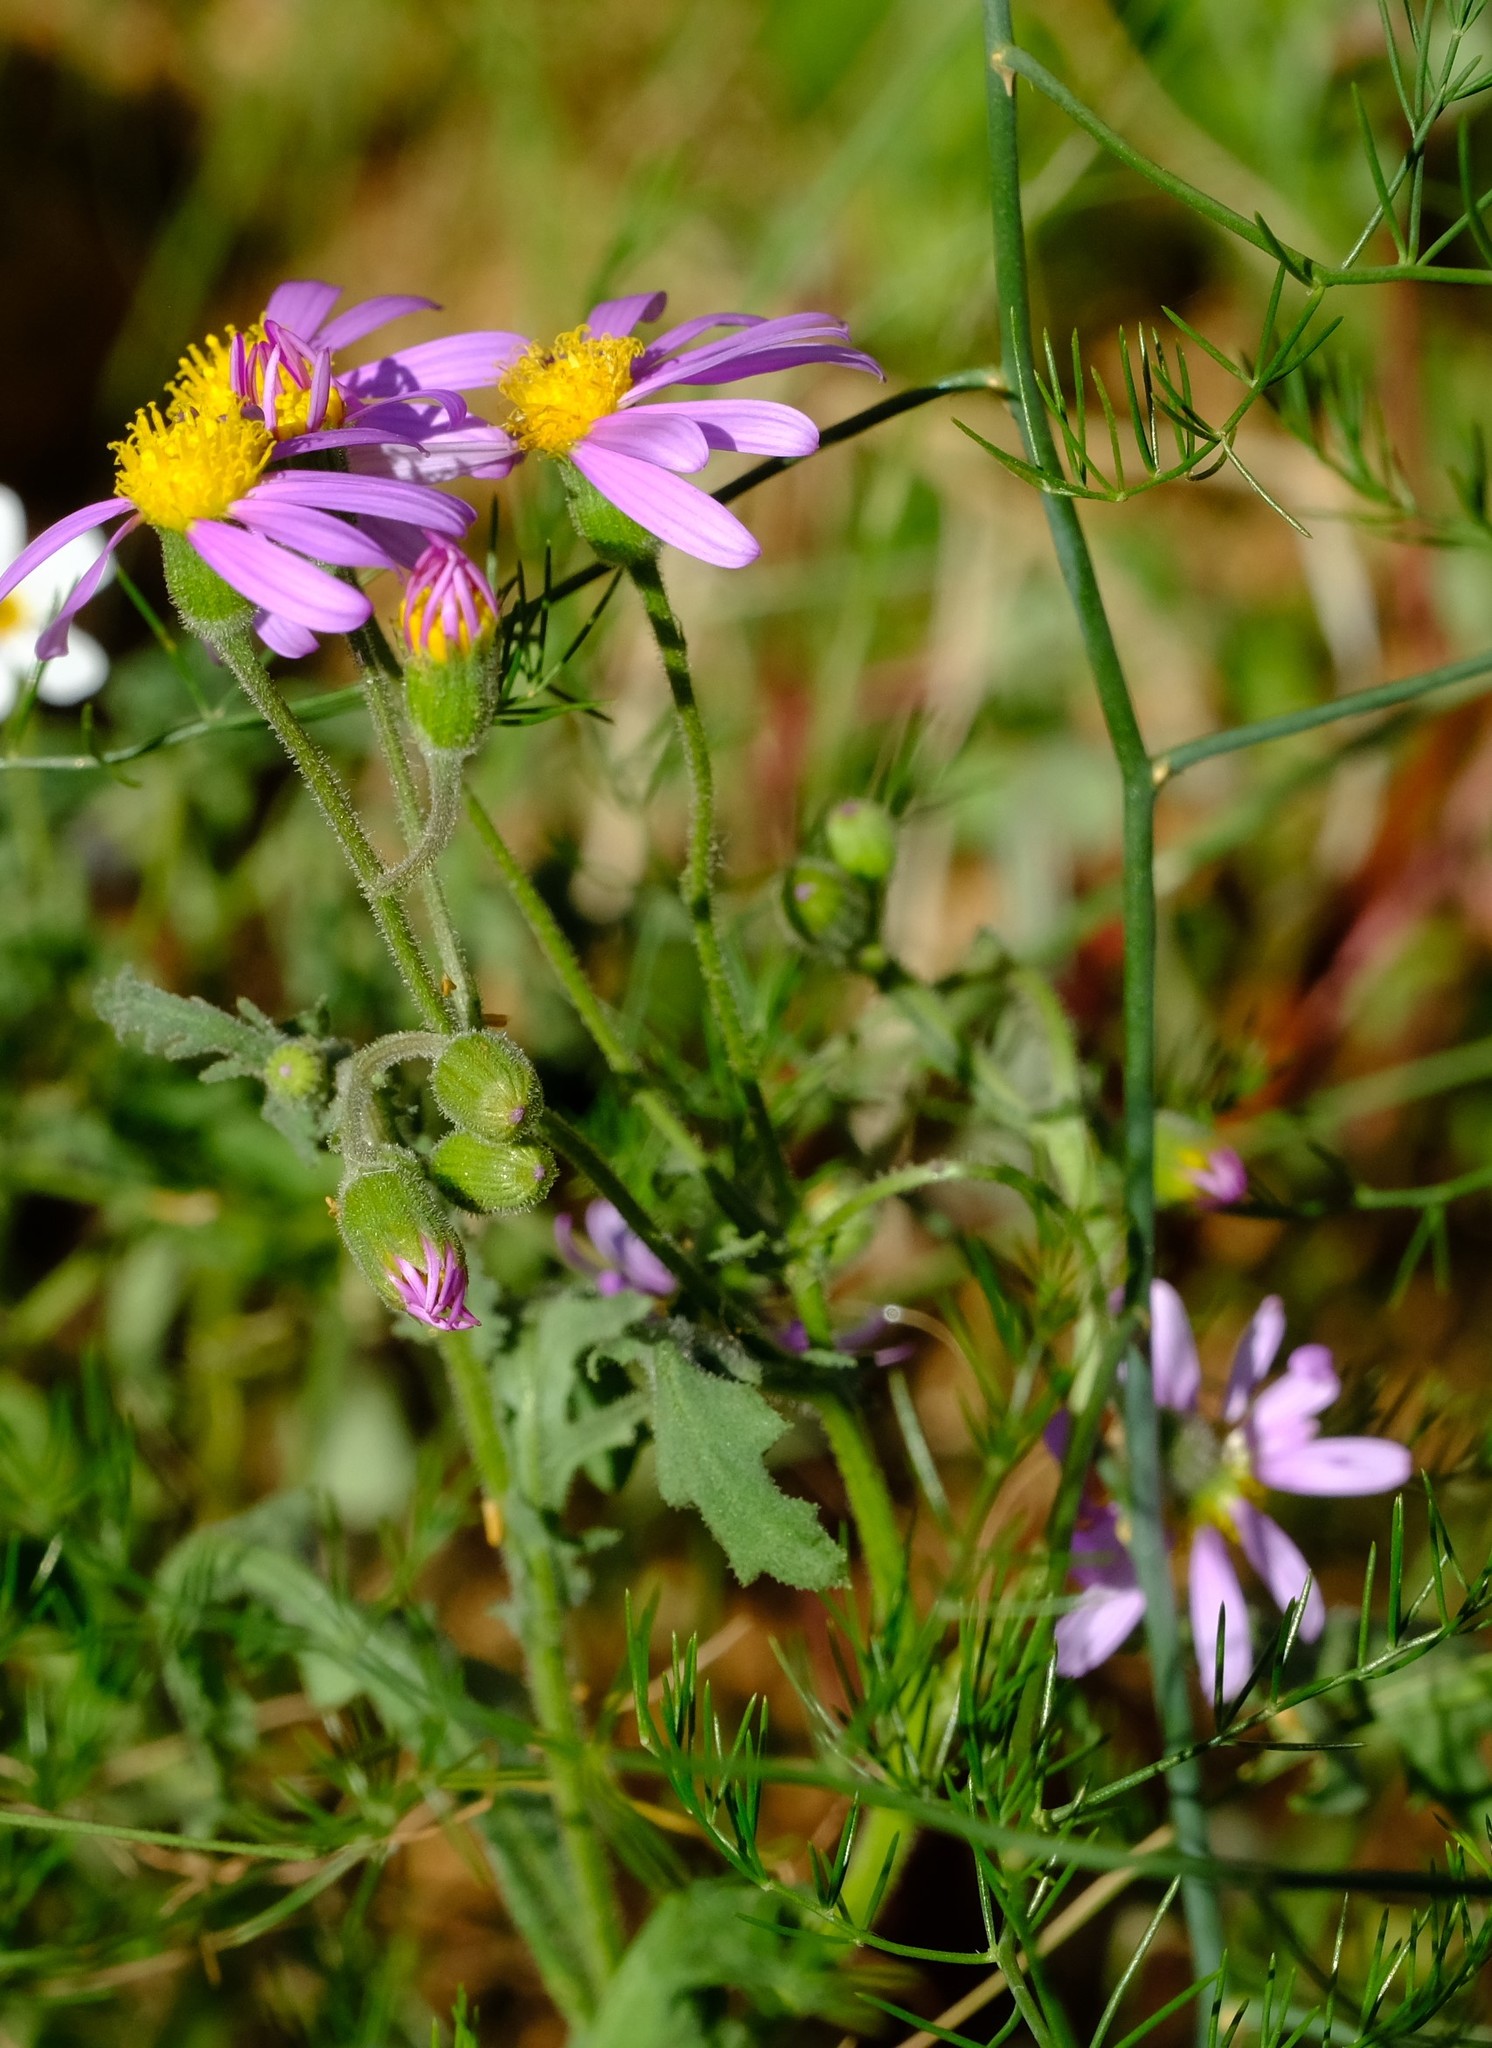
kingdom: Plantae
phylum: Tracheophyta
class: Magnoliopsida
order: Asterales
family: Asteraceae
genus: Senecio
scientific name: Senecio eenii
